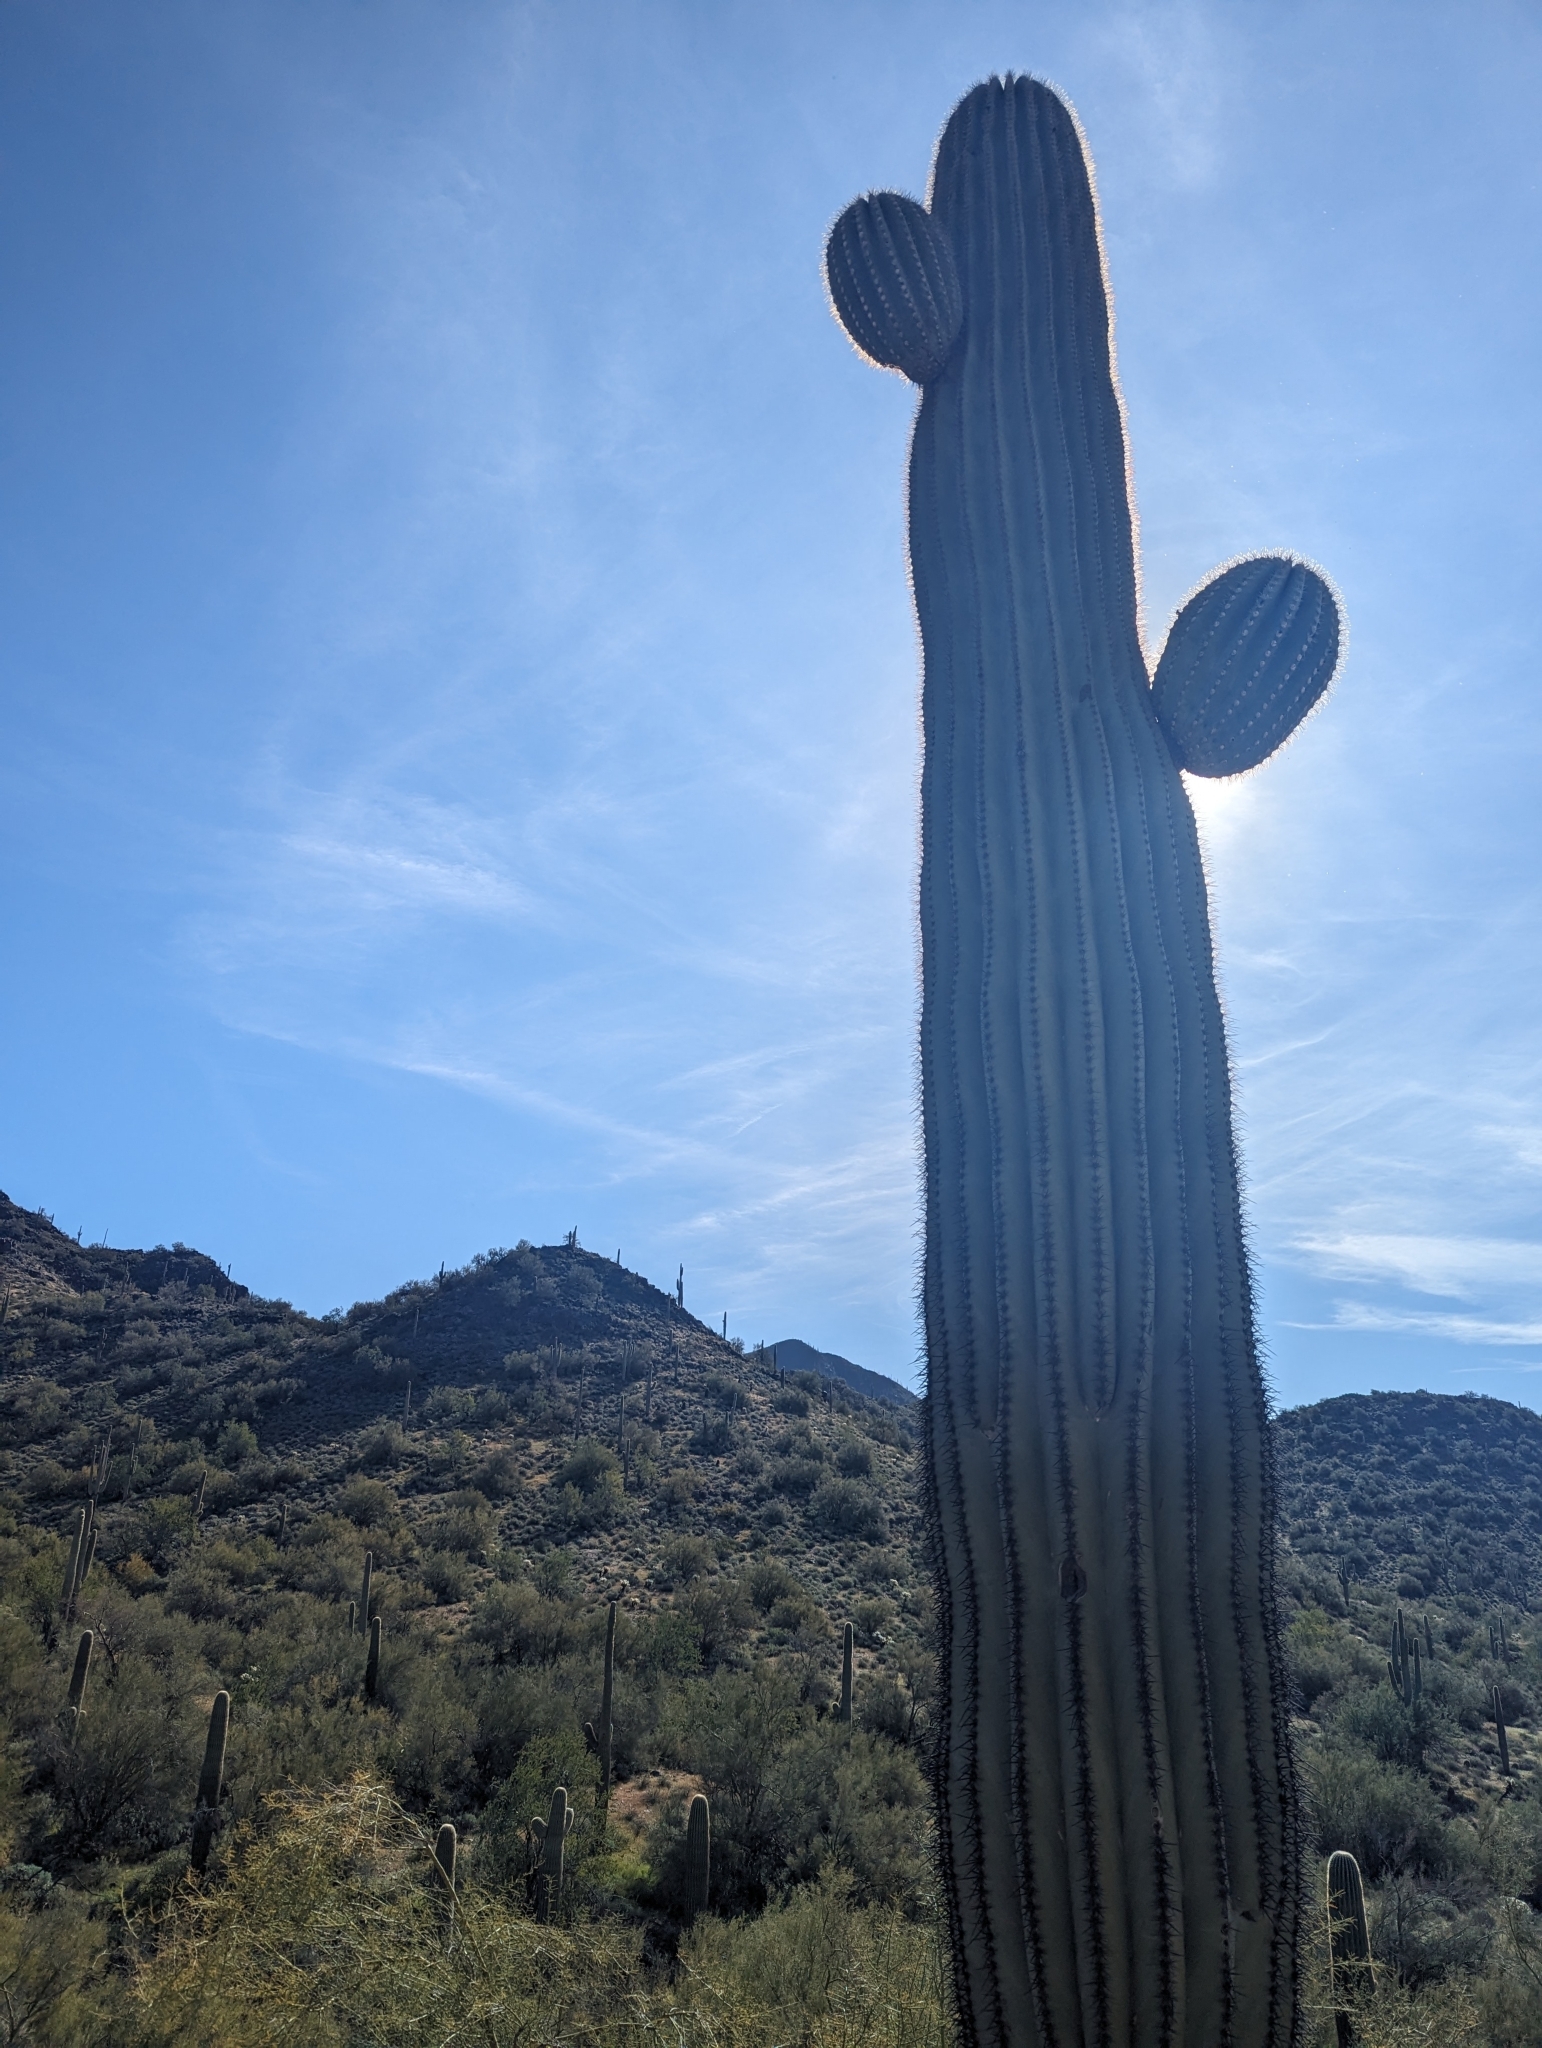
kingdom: Plantae
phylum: Tracheophyta
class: Magnoliopsida
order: Caryophyllales
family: Cactaceae
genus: Carnegiea
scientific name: Carnegiea gigantea
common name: Saguaro
